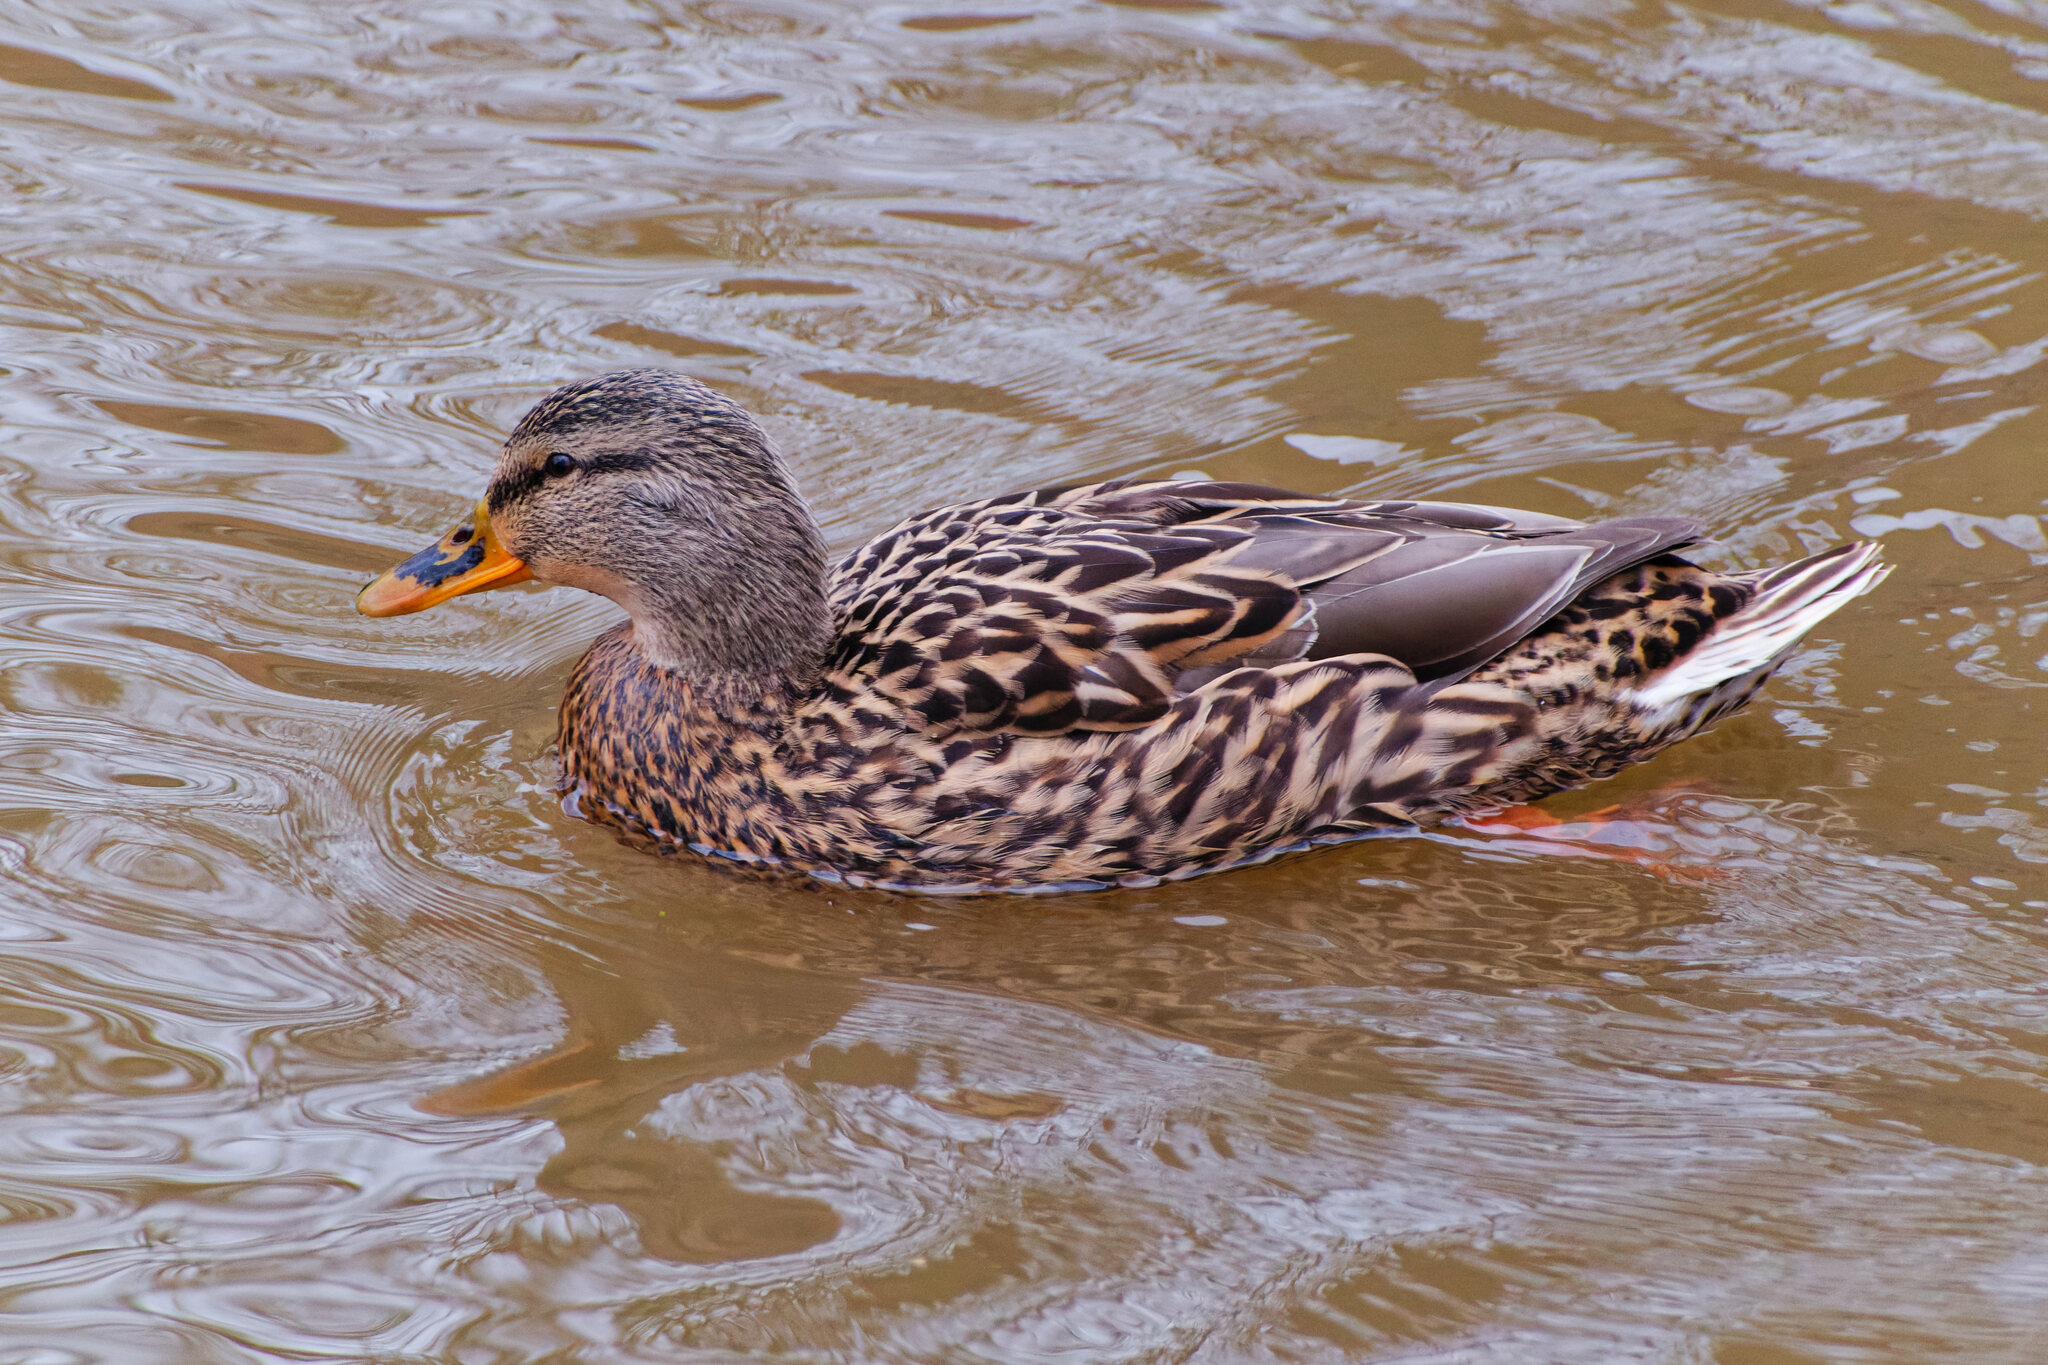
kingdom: Animalia
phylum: Chordata
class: Aves
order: Anseriformes
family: Anatidae
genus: Anas
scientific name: Anas platyrhynchos
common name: Mallard
